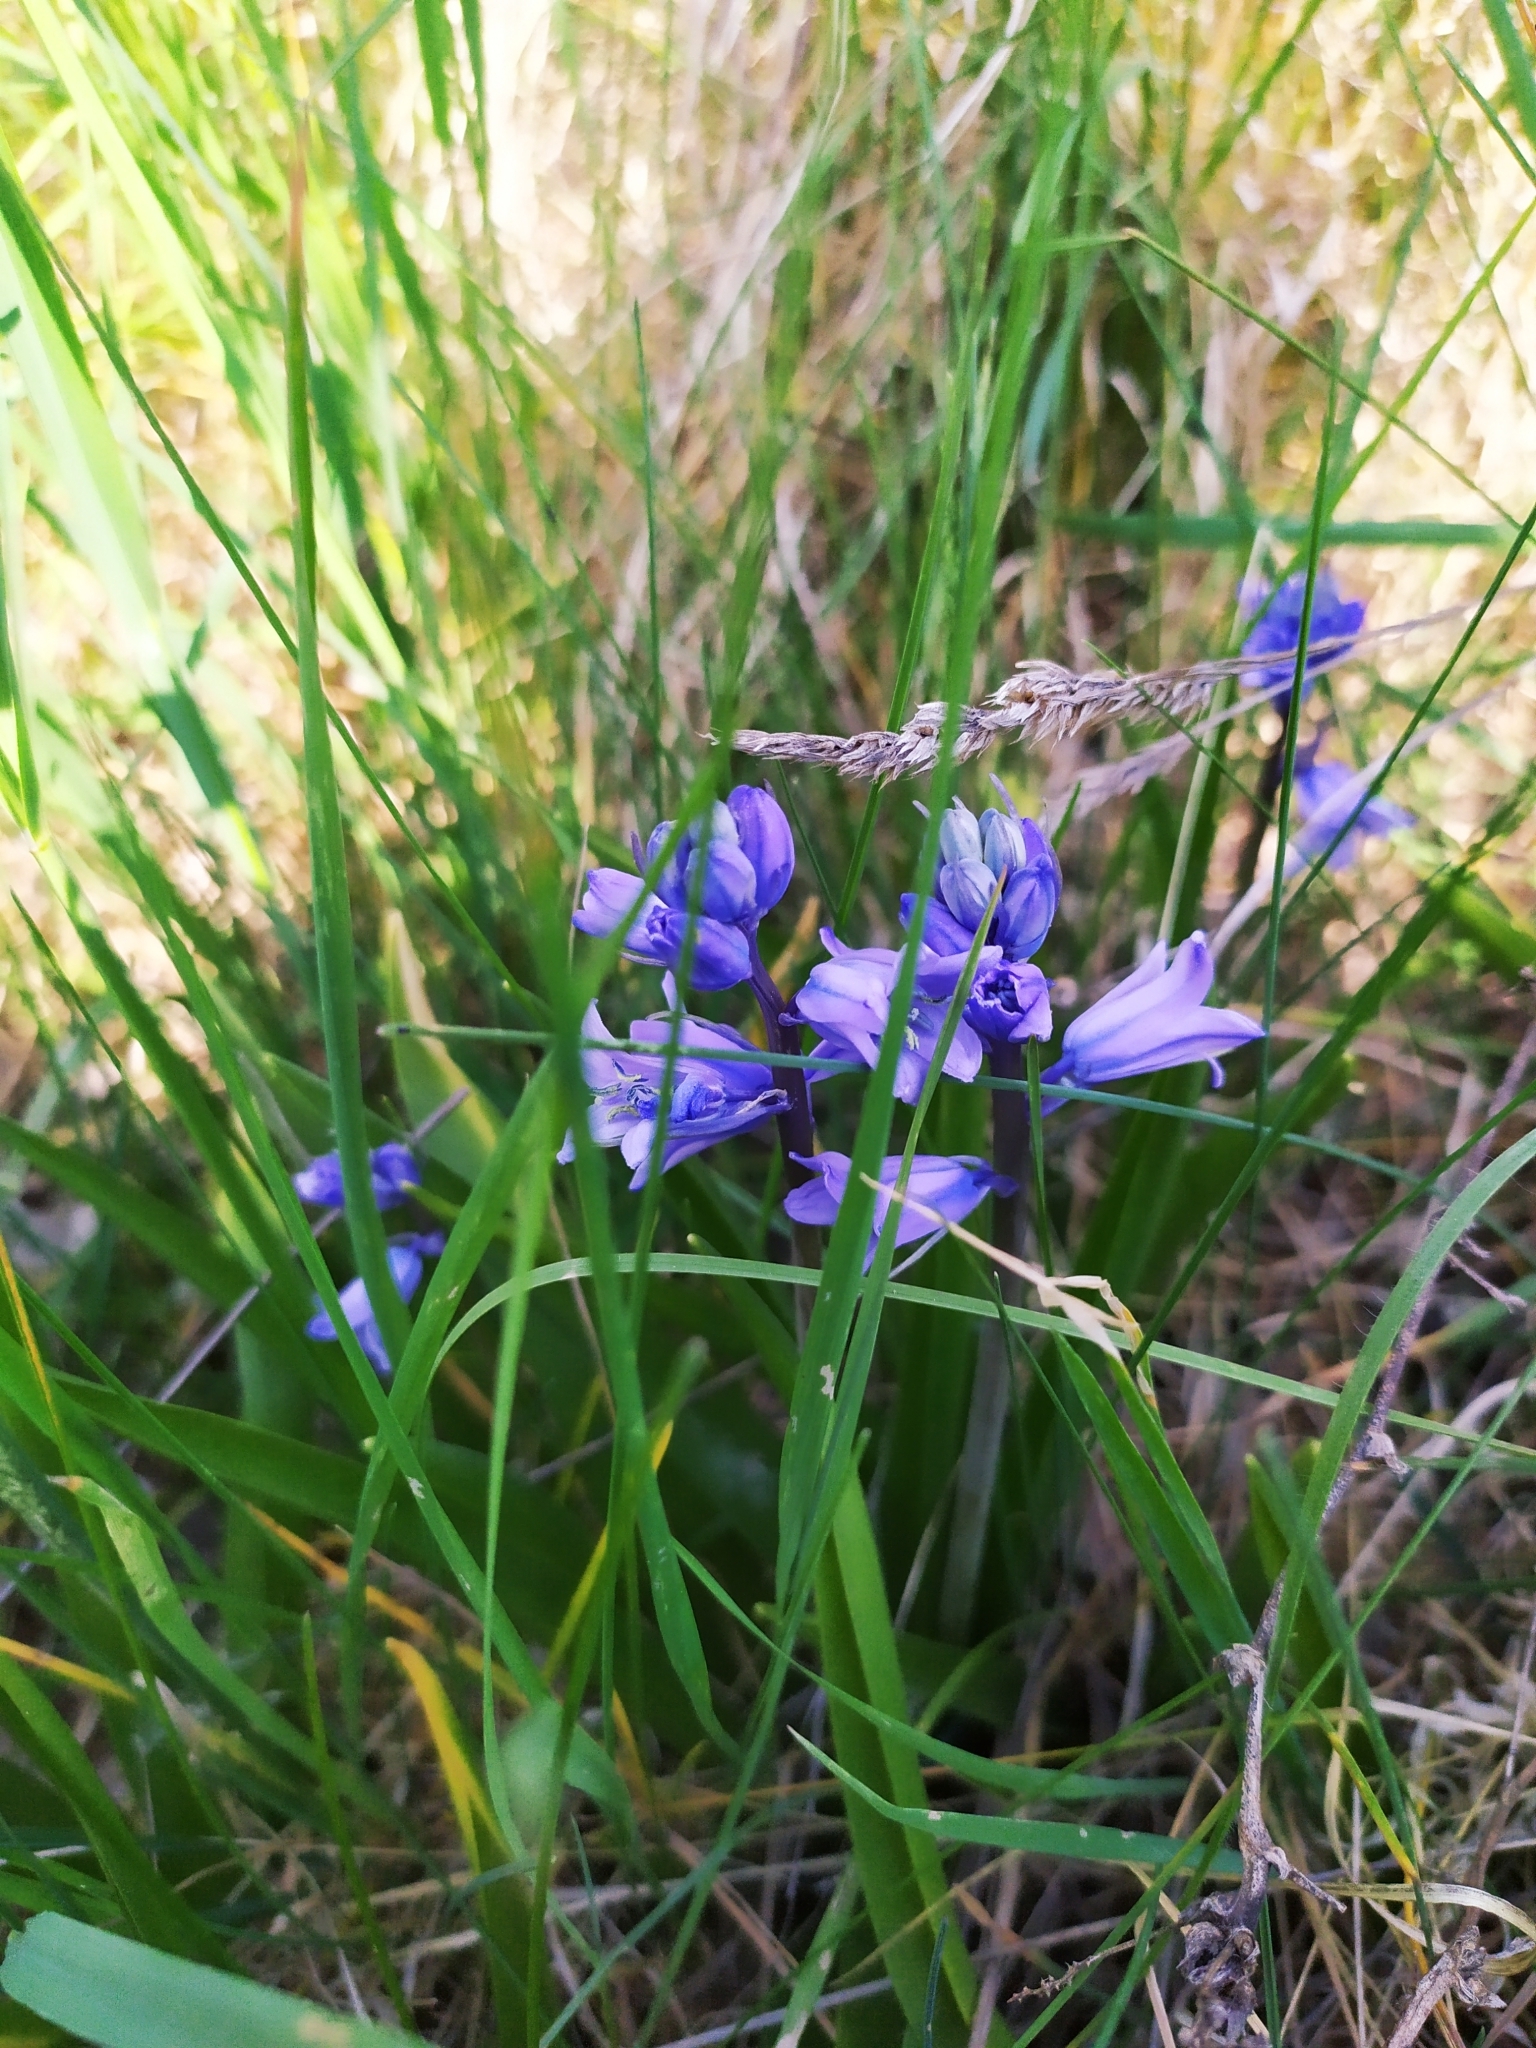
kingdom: Plantae
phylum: Tracheophyta
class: Liliopsida
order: Asparagales
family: Asparagaceae
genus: Hyacinthoides
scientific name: Hyacinthoides hispanica
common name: Spanish bluebell
